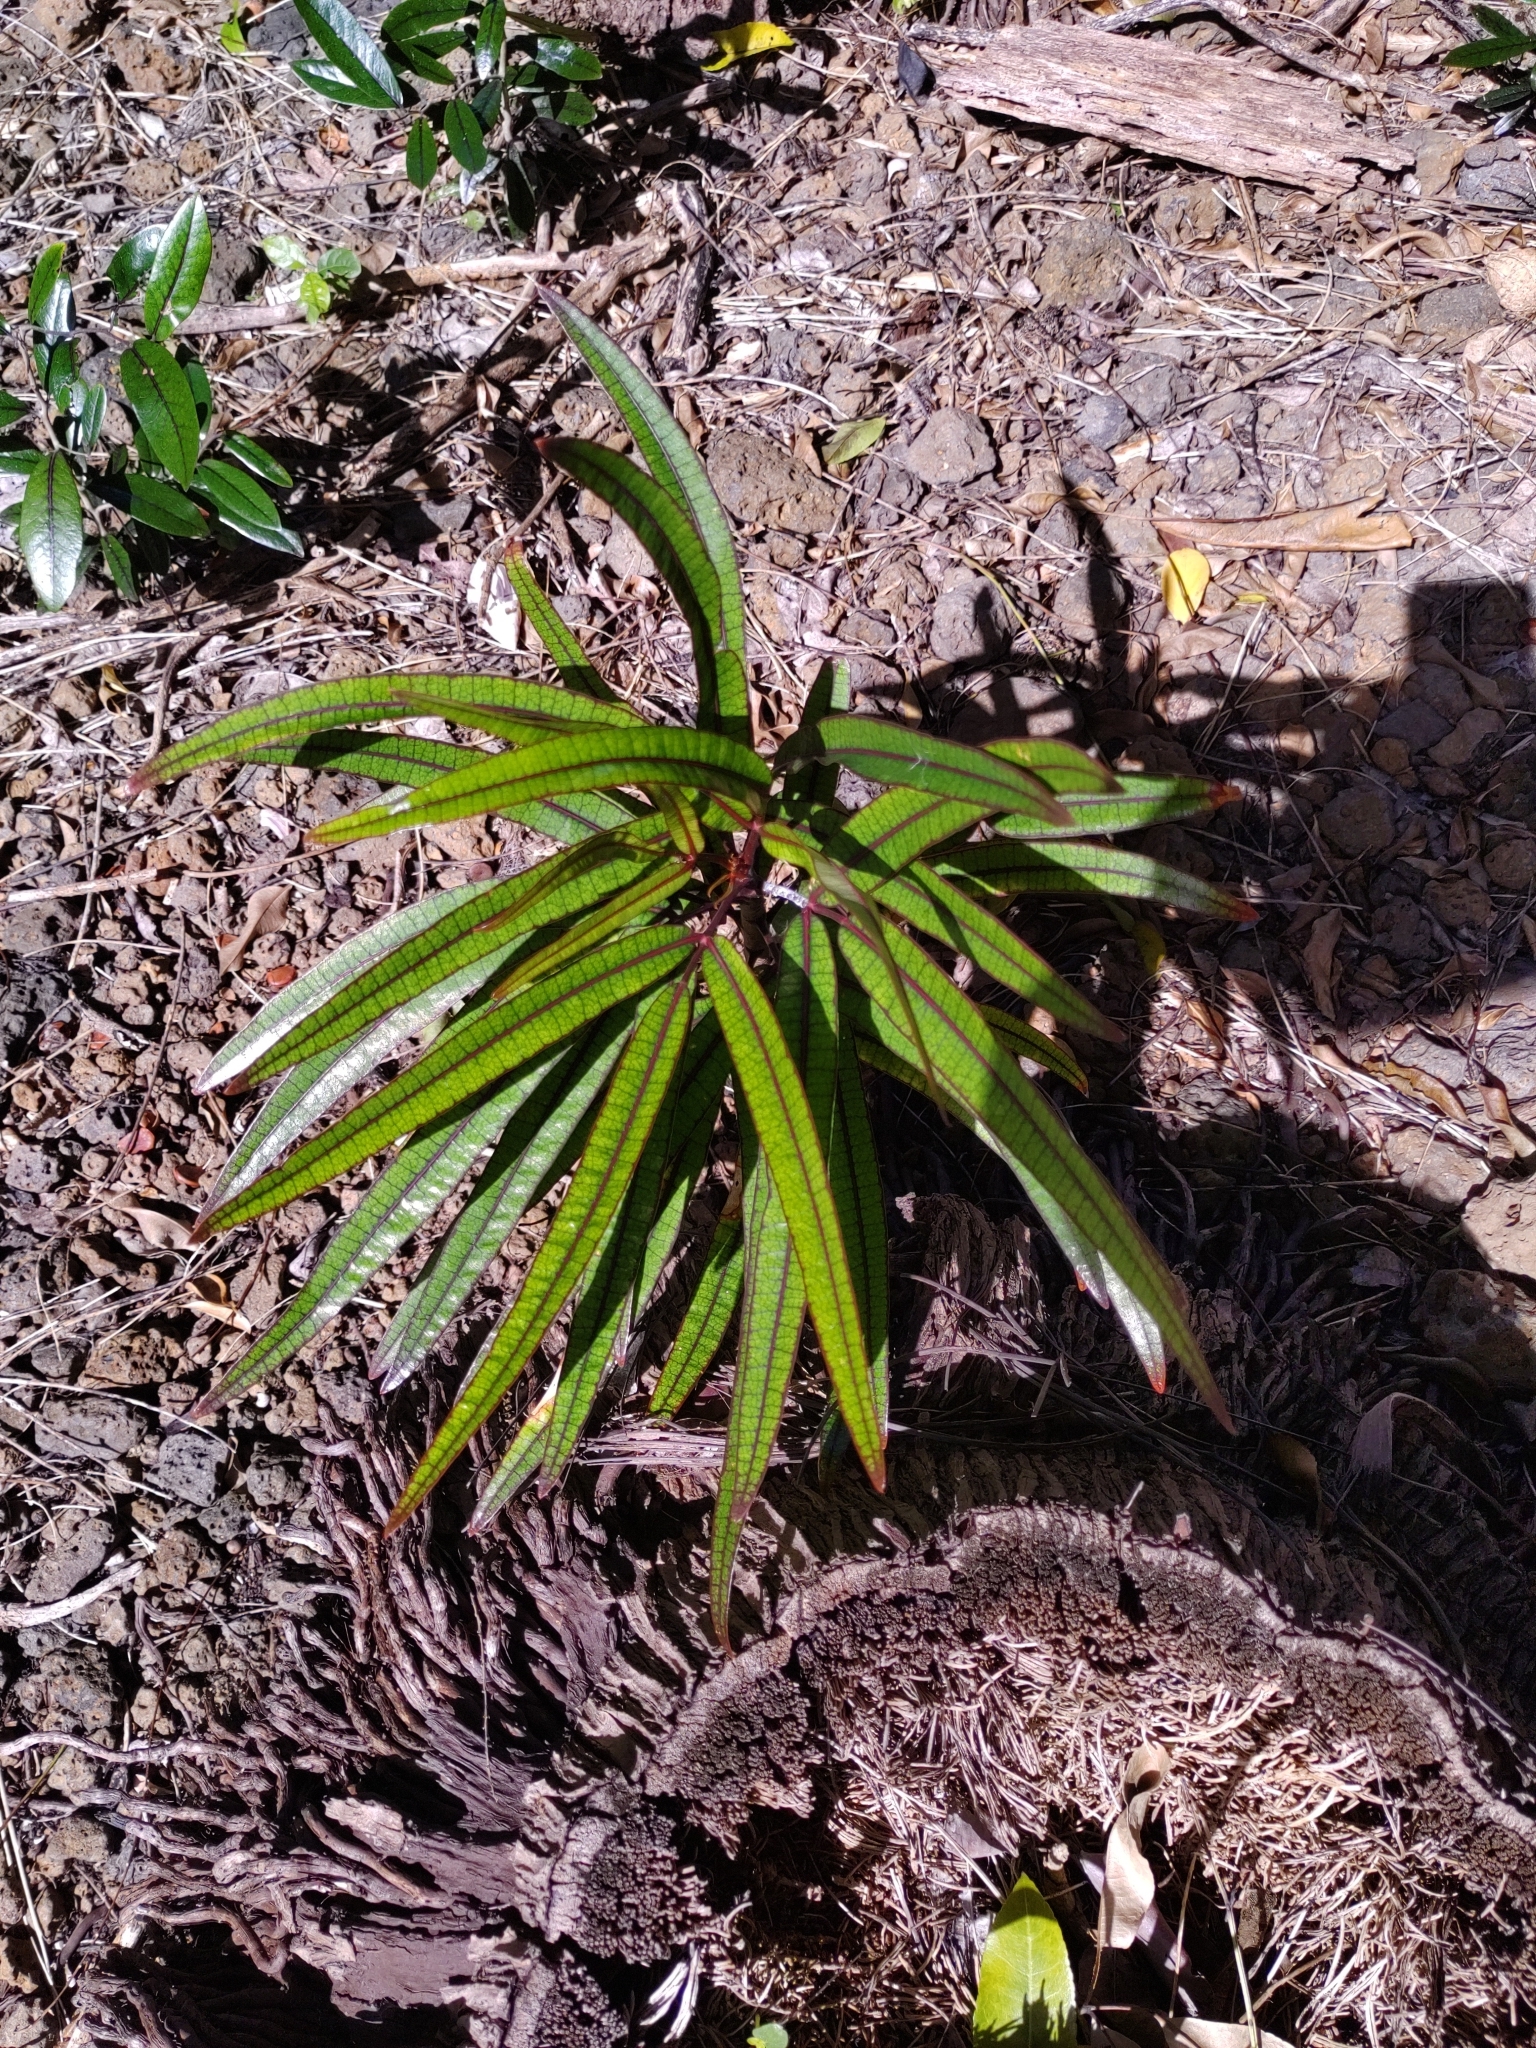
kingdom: Plantae
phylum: Tracheophyta
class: Magnoliopsida
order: Apiales
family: Araliaceae
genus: Polyscias
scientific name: Polyscias maraisiana
